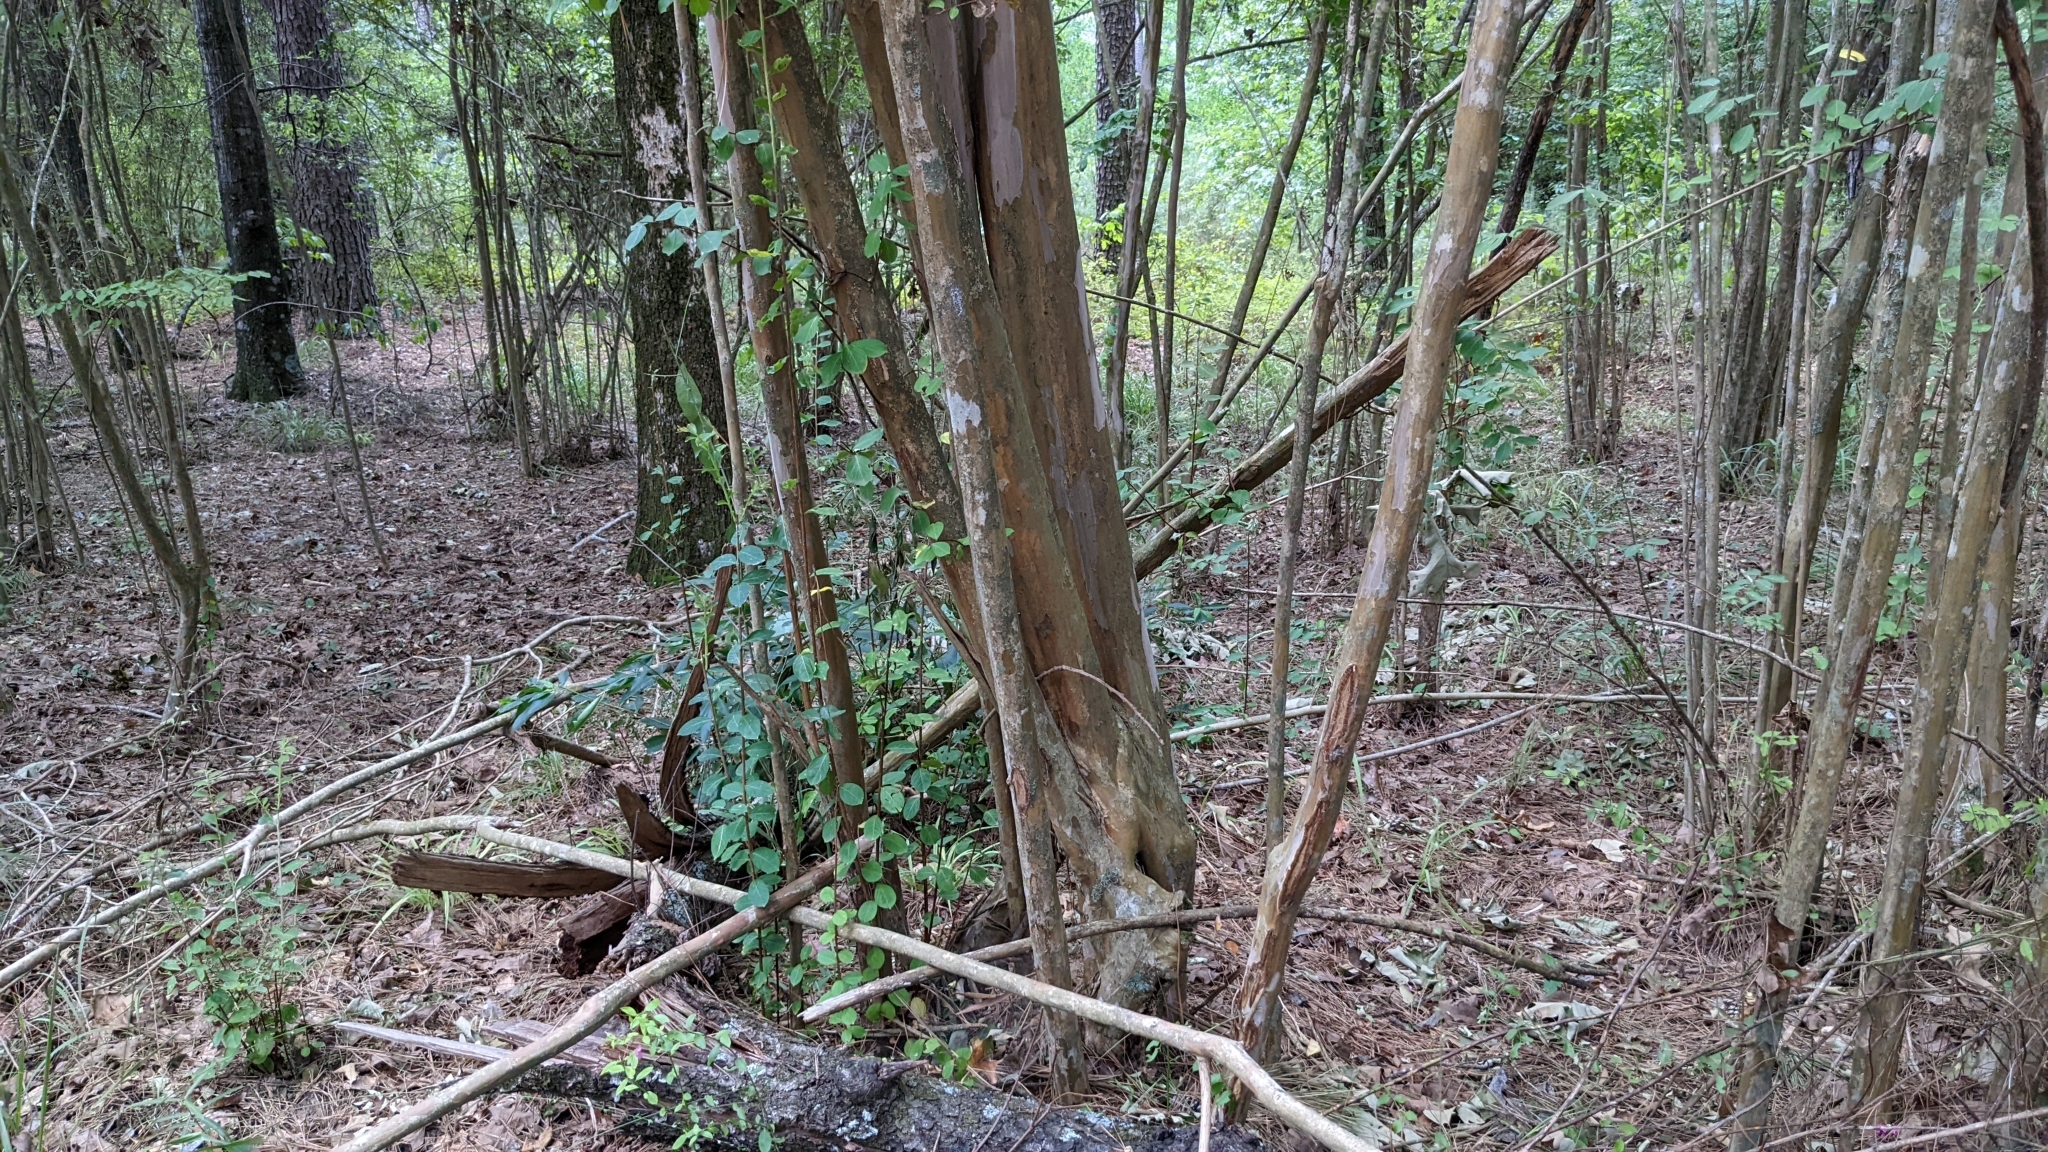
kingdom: Plantae
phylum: Tracheophyta
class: Magnoliopsida
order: Myrtales
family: Lythraceae
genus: Lagerstroemia
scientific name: Lagerstroemia indica
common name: Crape-myrtle
